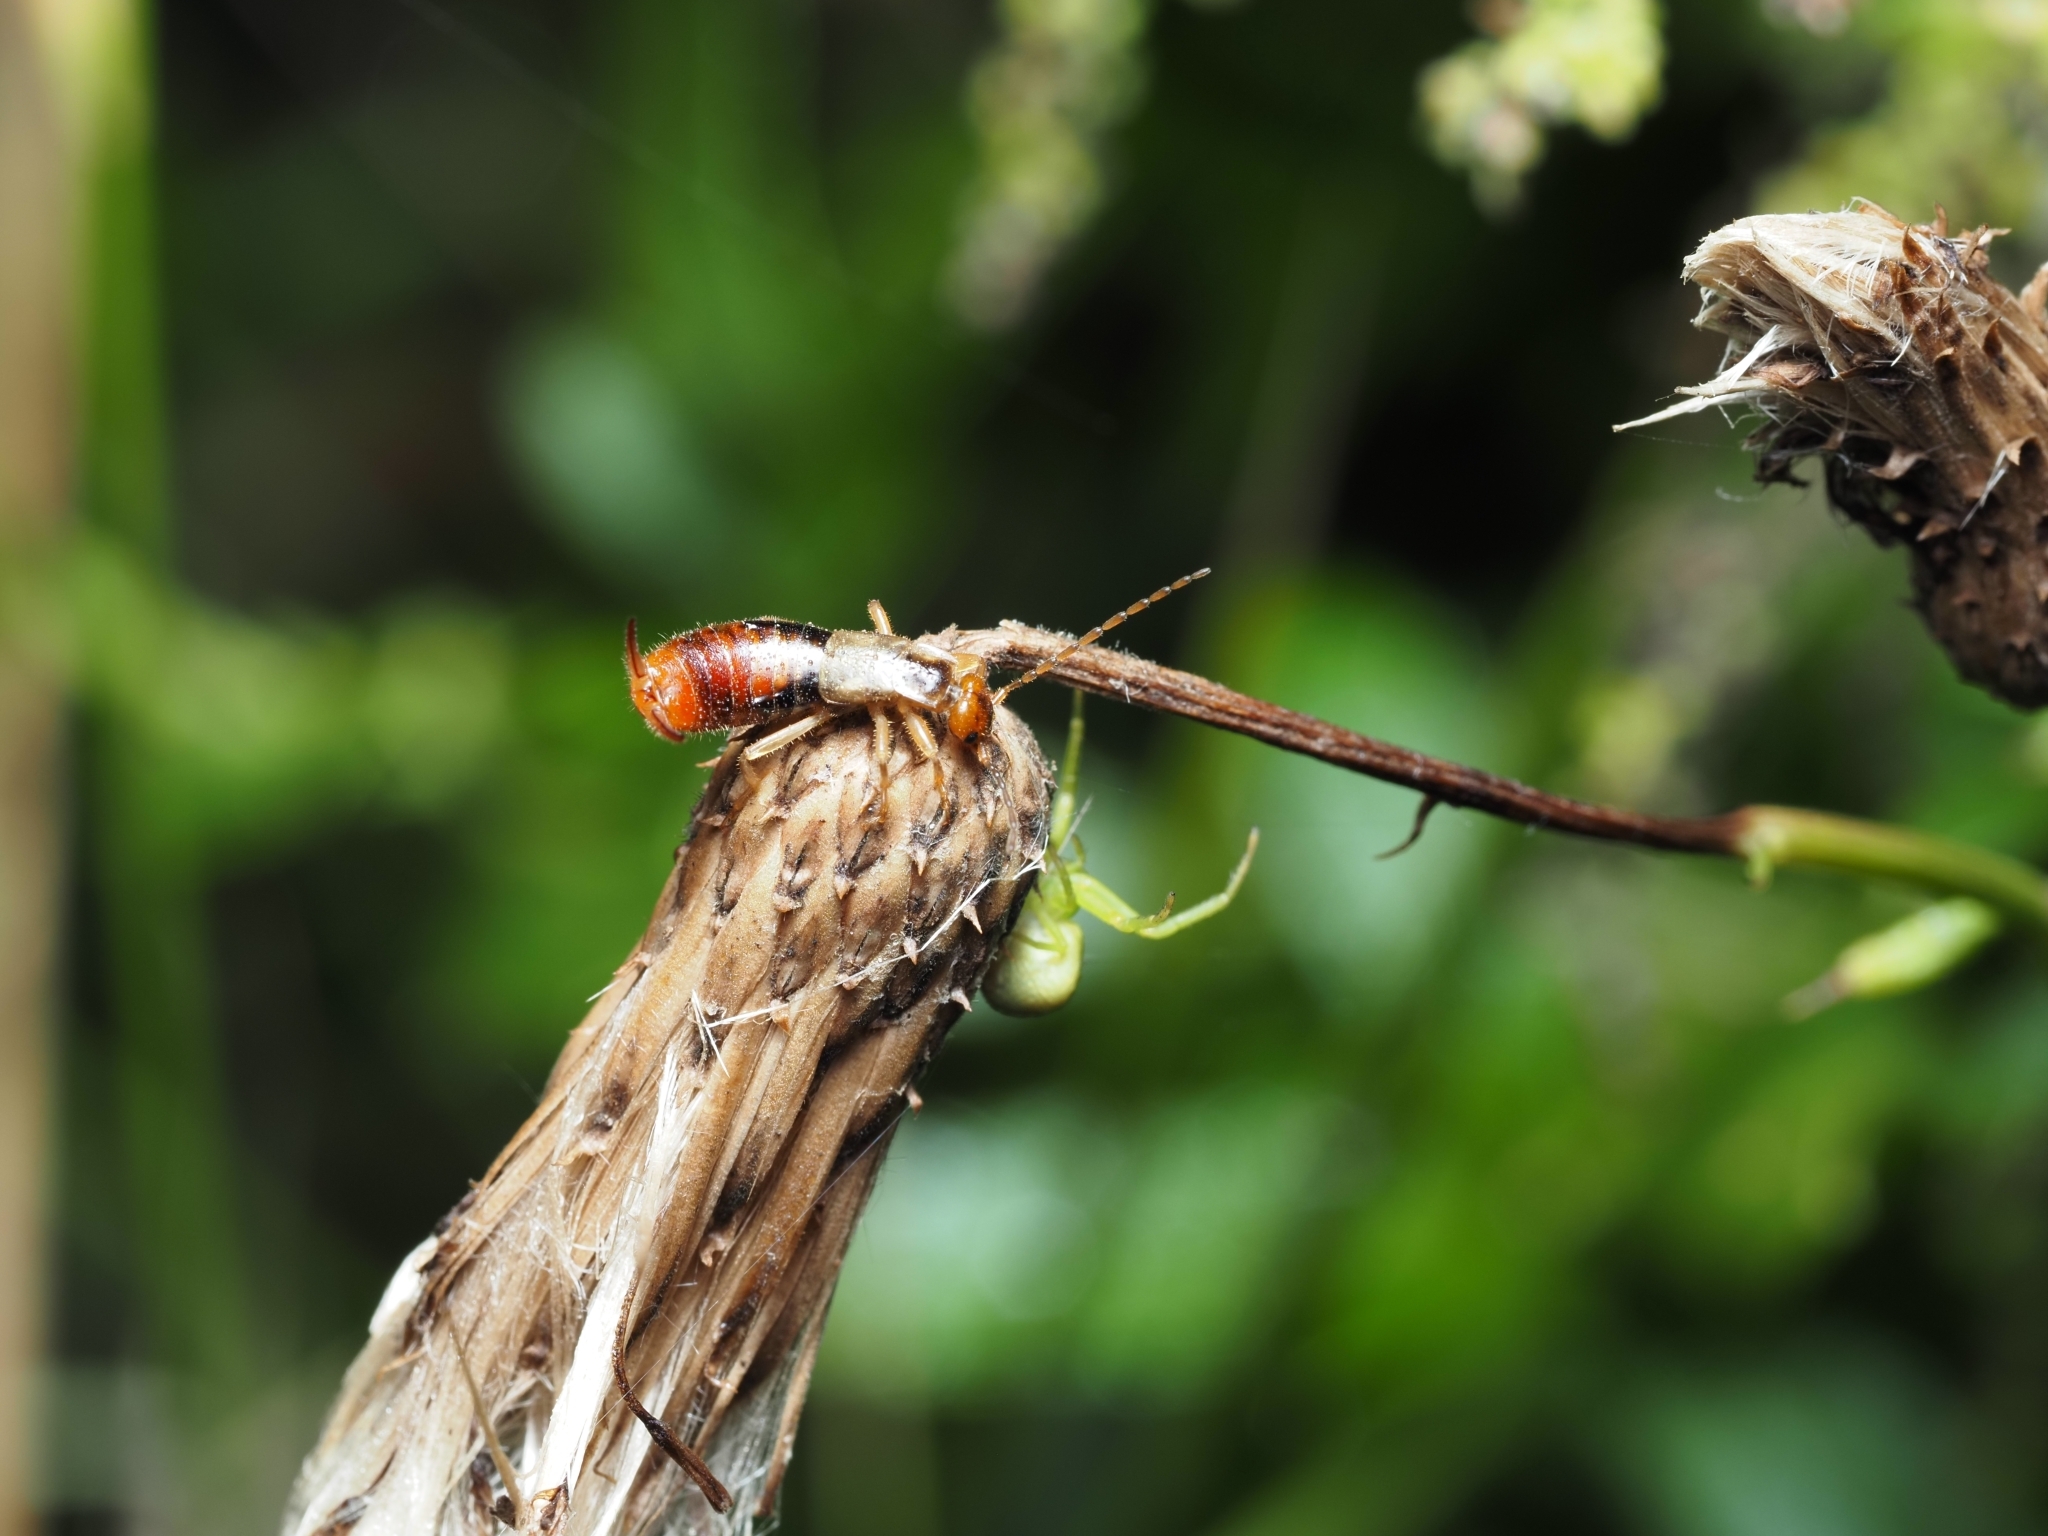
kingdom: Animalia
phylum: Arthropoda
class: Insecta
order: Dermaptera
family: Forficulidae
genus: Apterygida
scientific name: Apterygida albipennis
